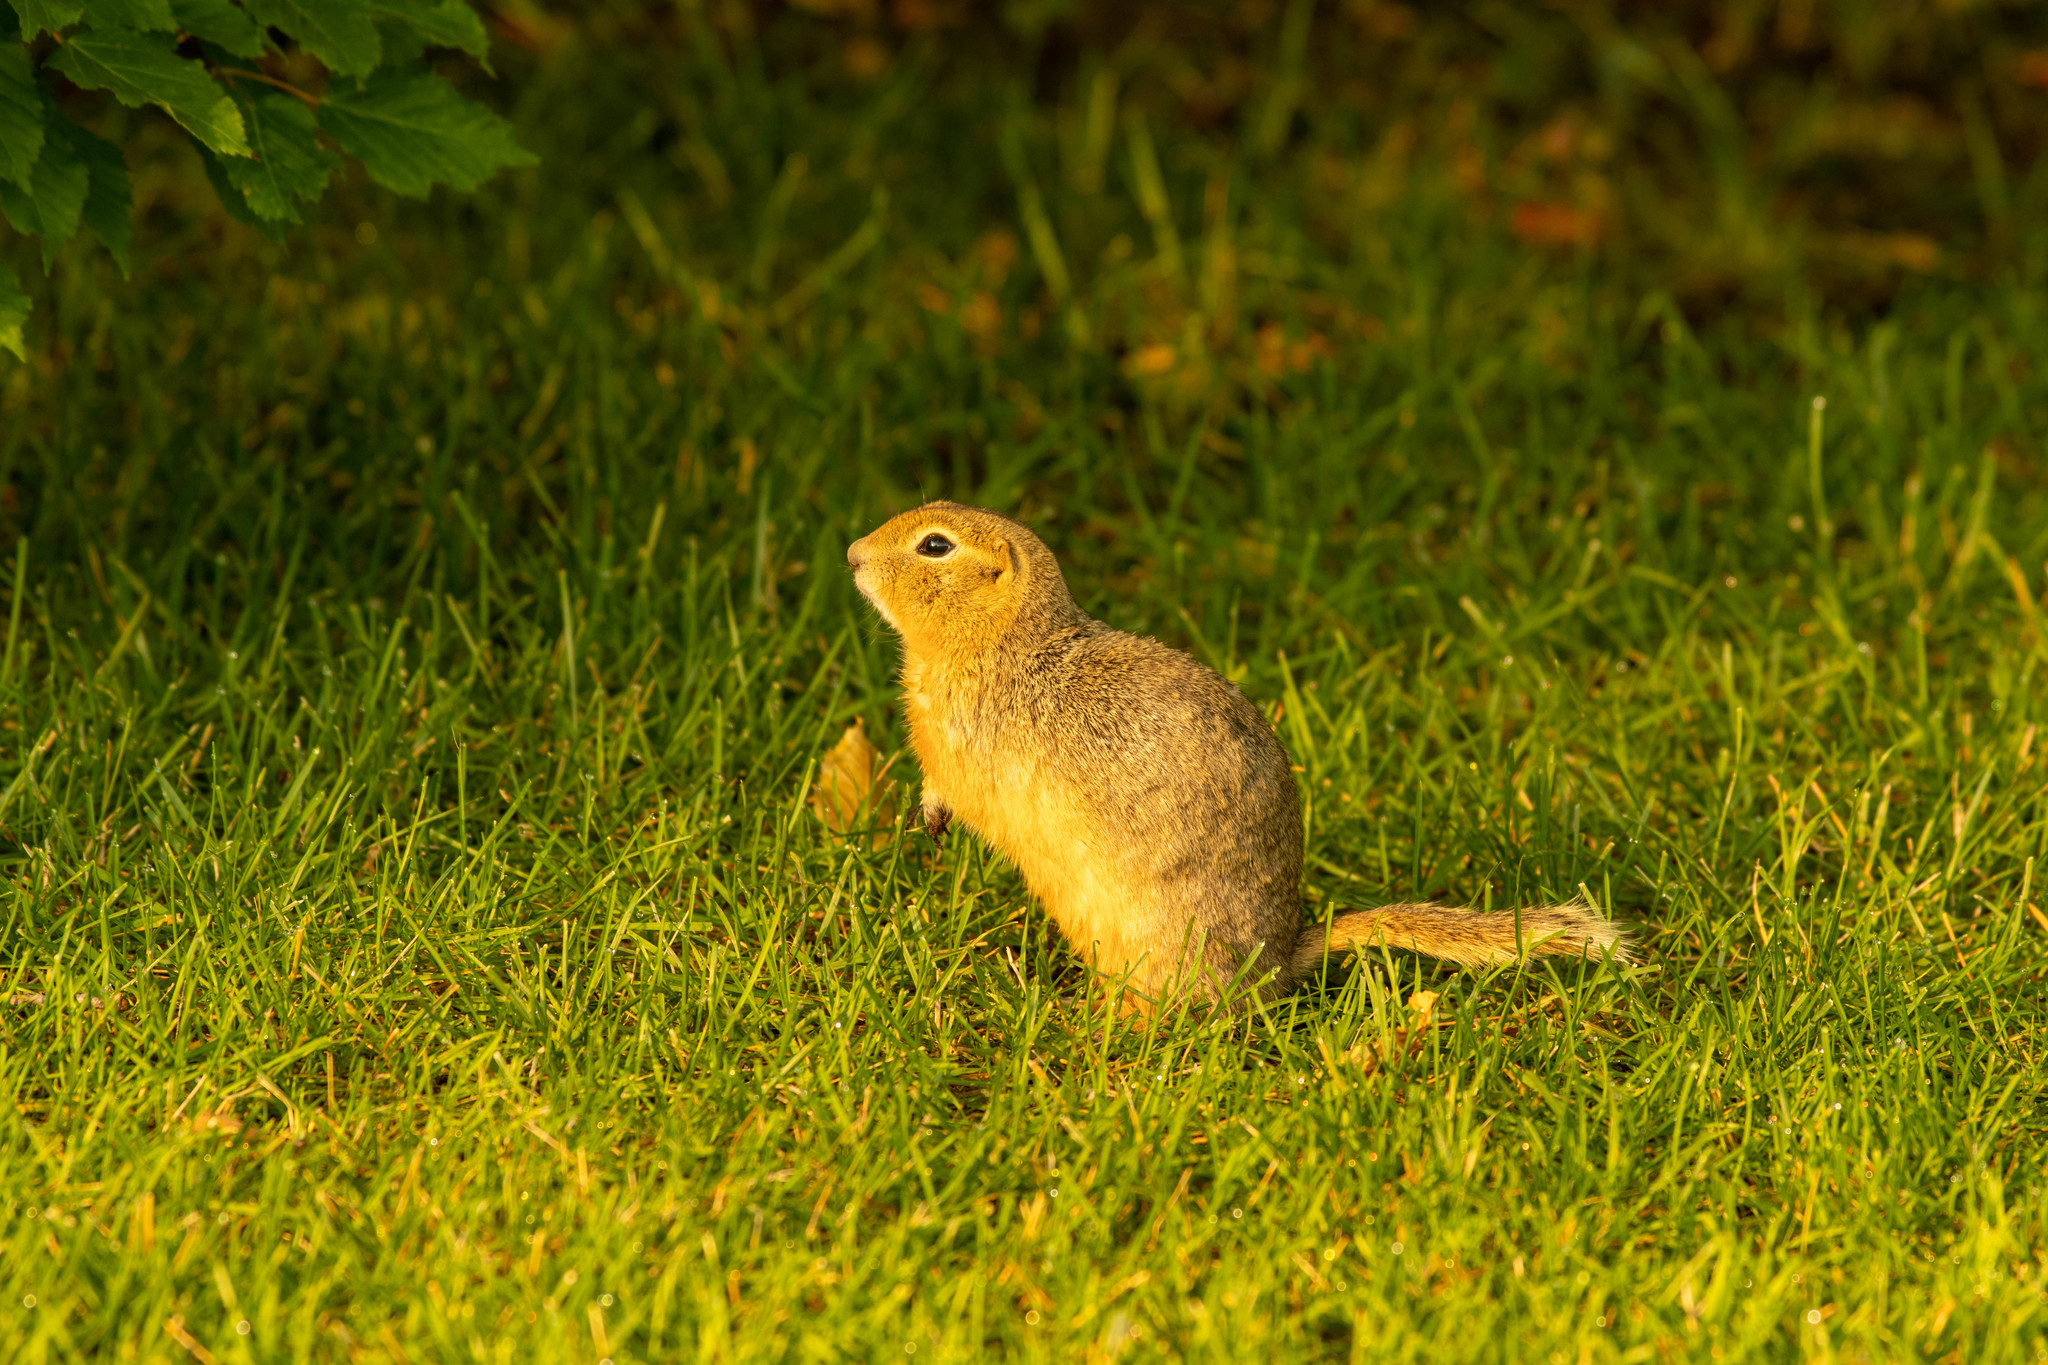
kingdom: Animalia
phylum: Chordata
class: Mammalia
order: Rodentia
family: Sciuridae
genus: Urocitellus
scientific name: Urocitellus richardsonii
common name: Richardson's ground squirrel
